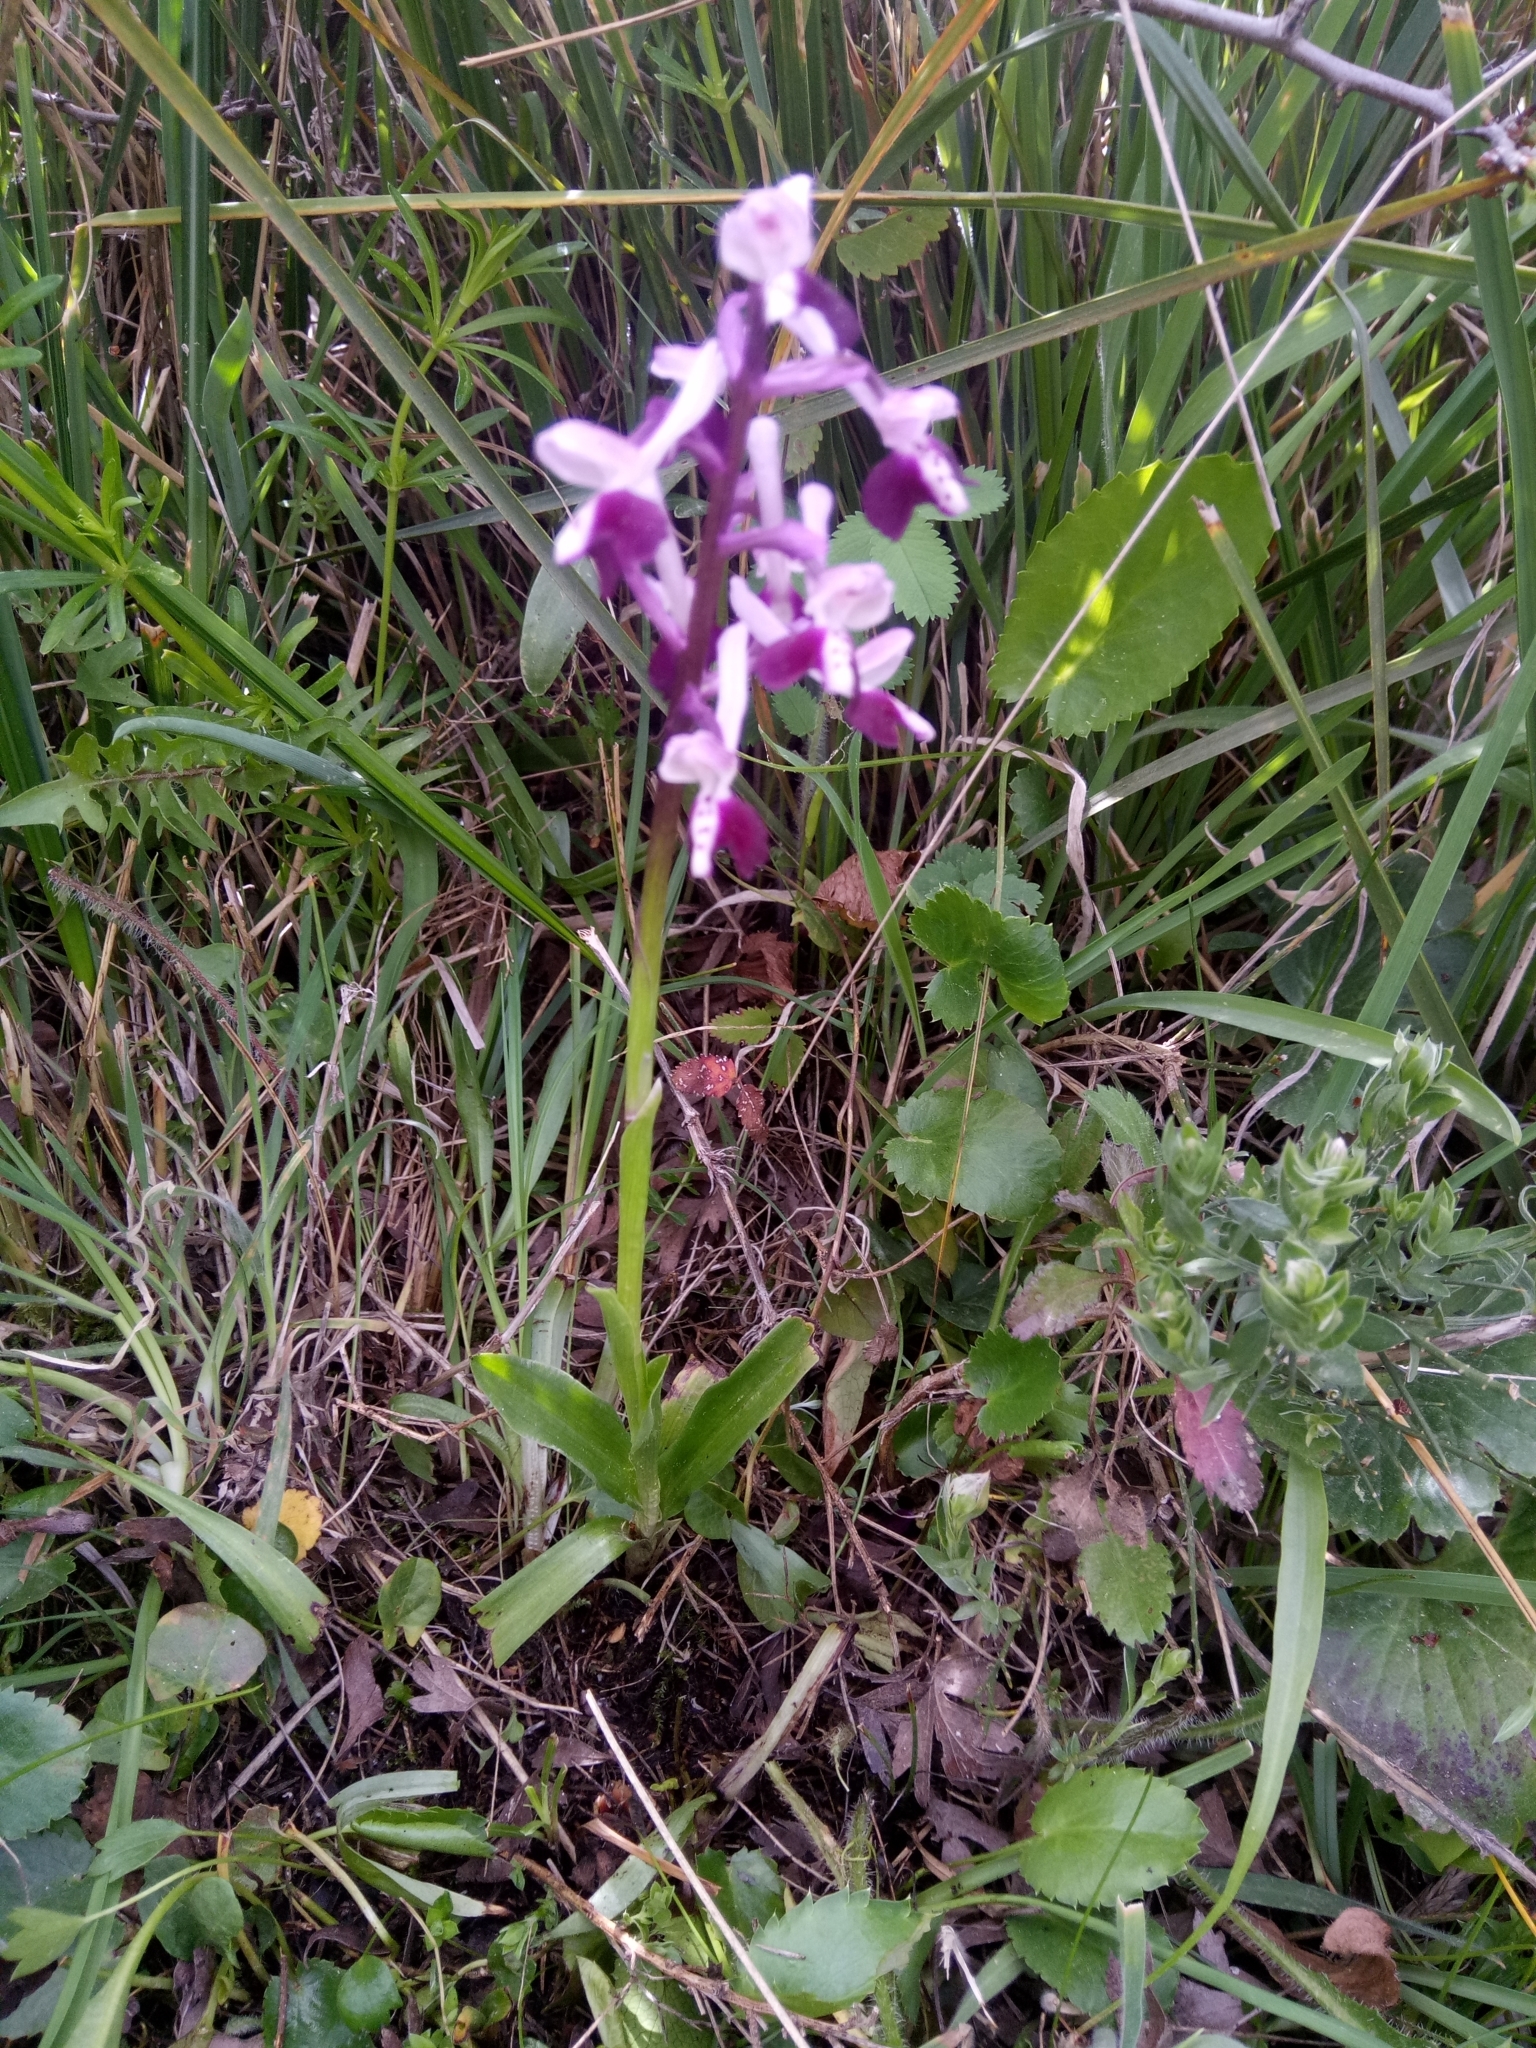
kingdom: Plantae
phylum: Tracheophyta
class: Liliopsida
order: Asparagales
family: Orchidaceae
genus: Anacamptis
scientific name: Anacamptis morio
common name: Green-winged orchid
